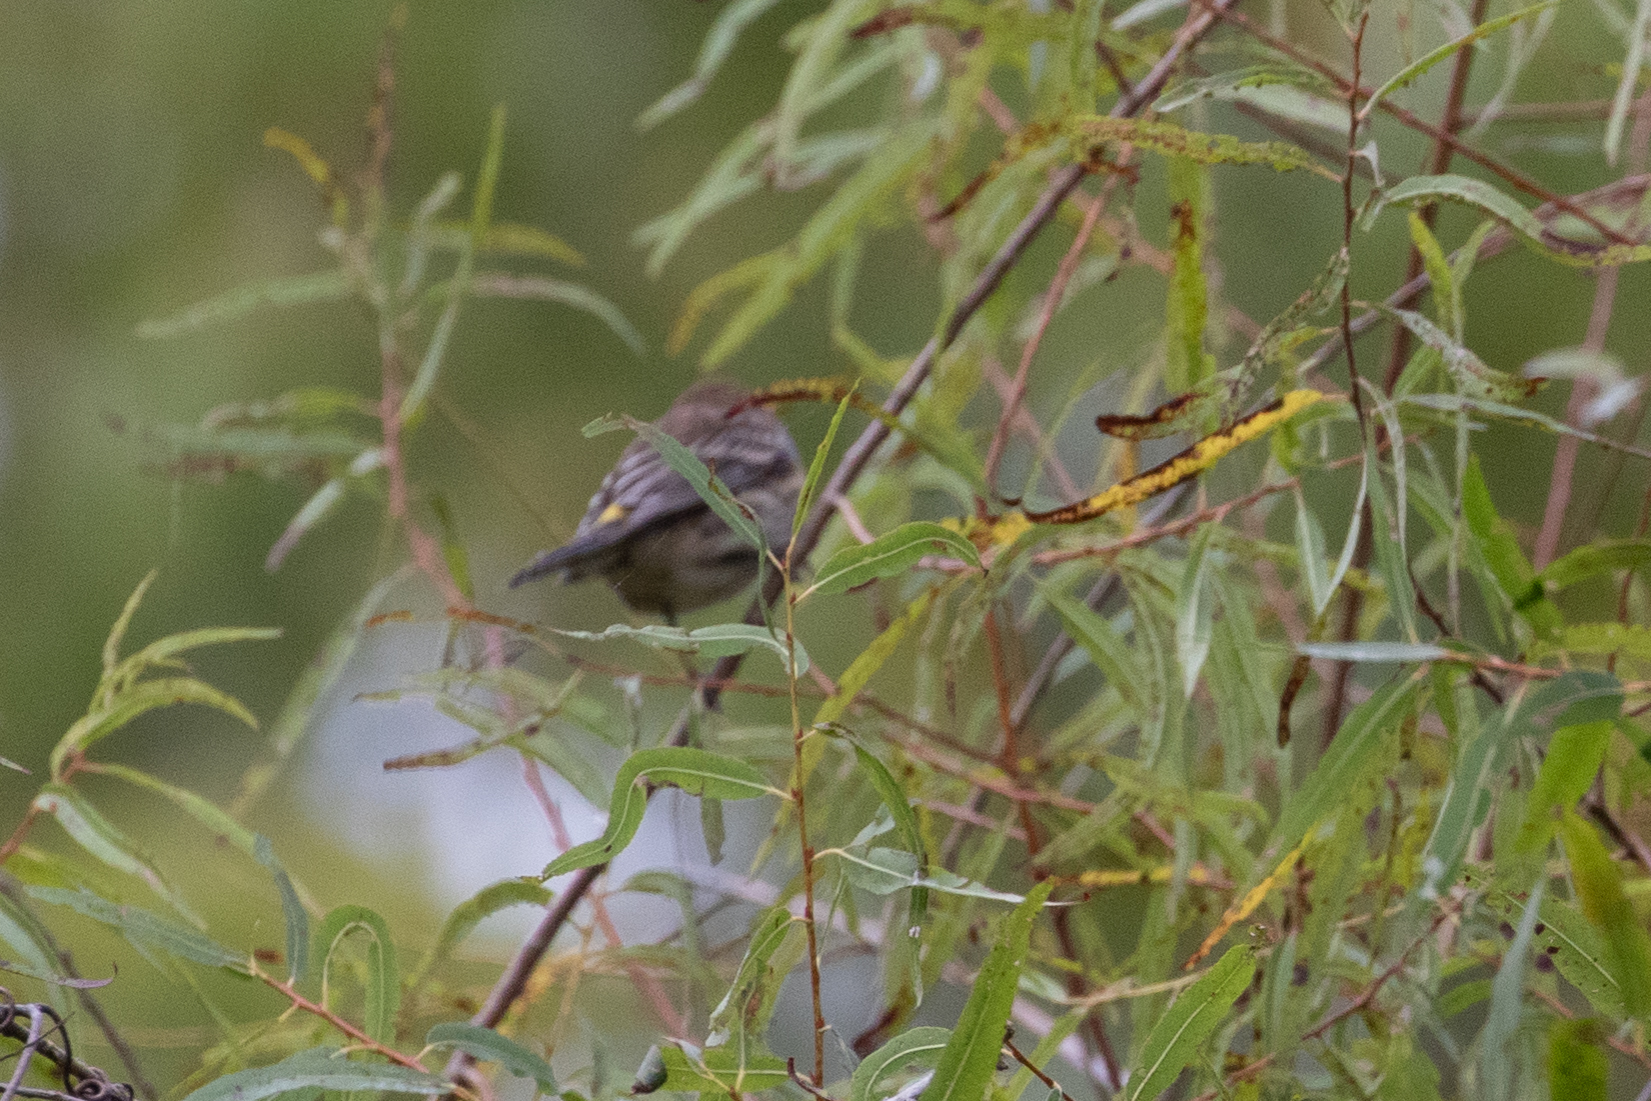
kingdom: Animalia
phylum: Chordata
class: Aves
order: Passeriformes
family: Parulidae
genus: Setophaga
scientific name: Setophaga coronata
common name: Myrtle warbler
